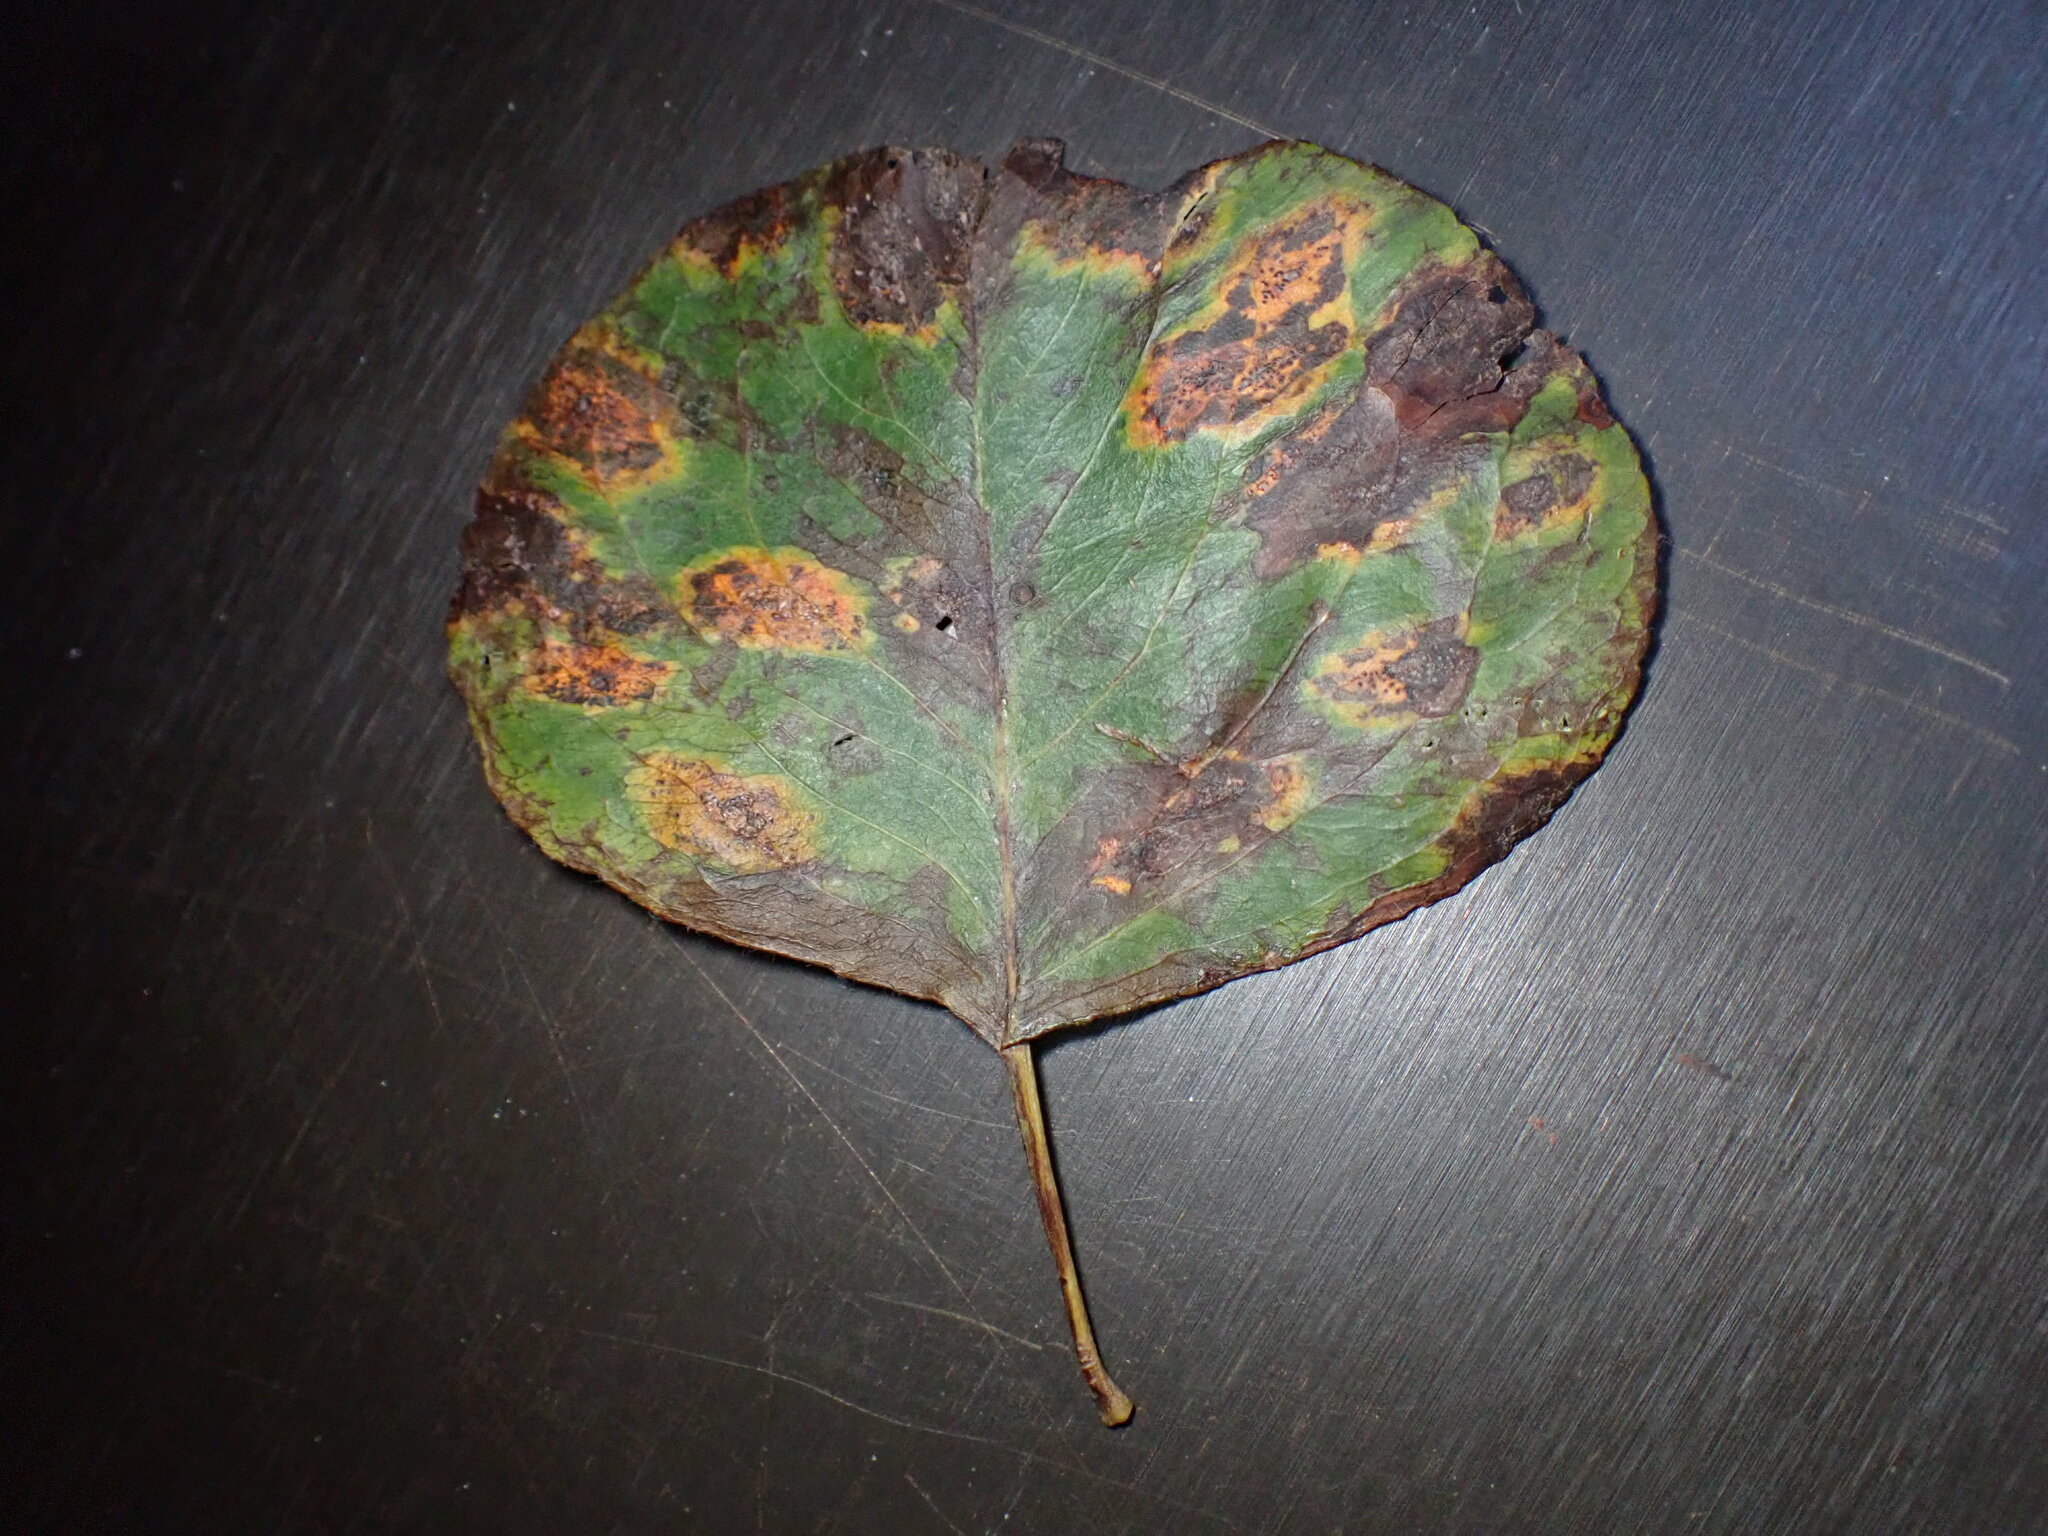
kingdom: Fungi
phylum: Basidiomycota
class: Pucciniomycetes
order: Pucciniales
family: Gymnosporangiaceae
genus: Gymnosporangium
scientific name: Gymnosporangium sabinae
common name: Pear trellis rust fungus
